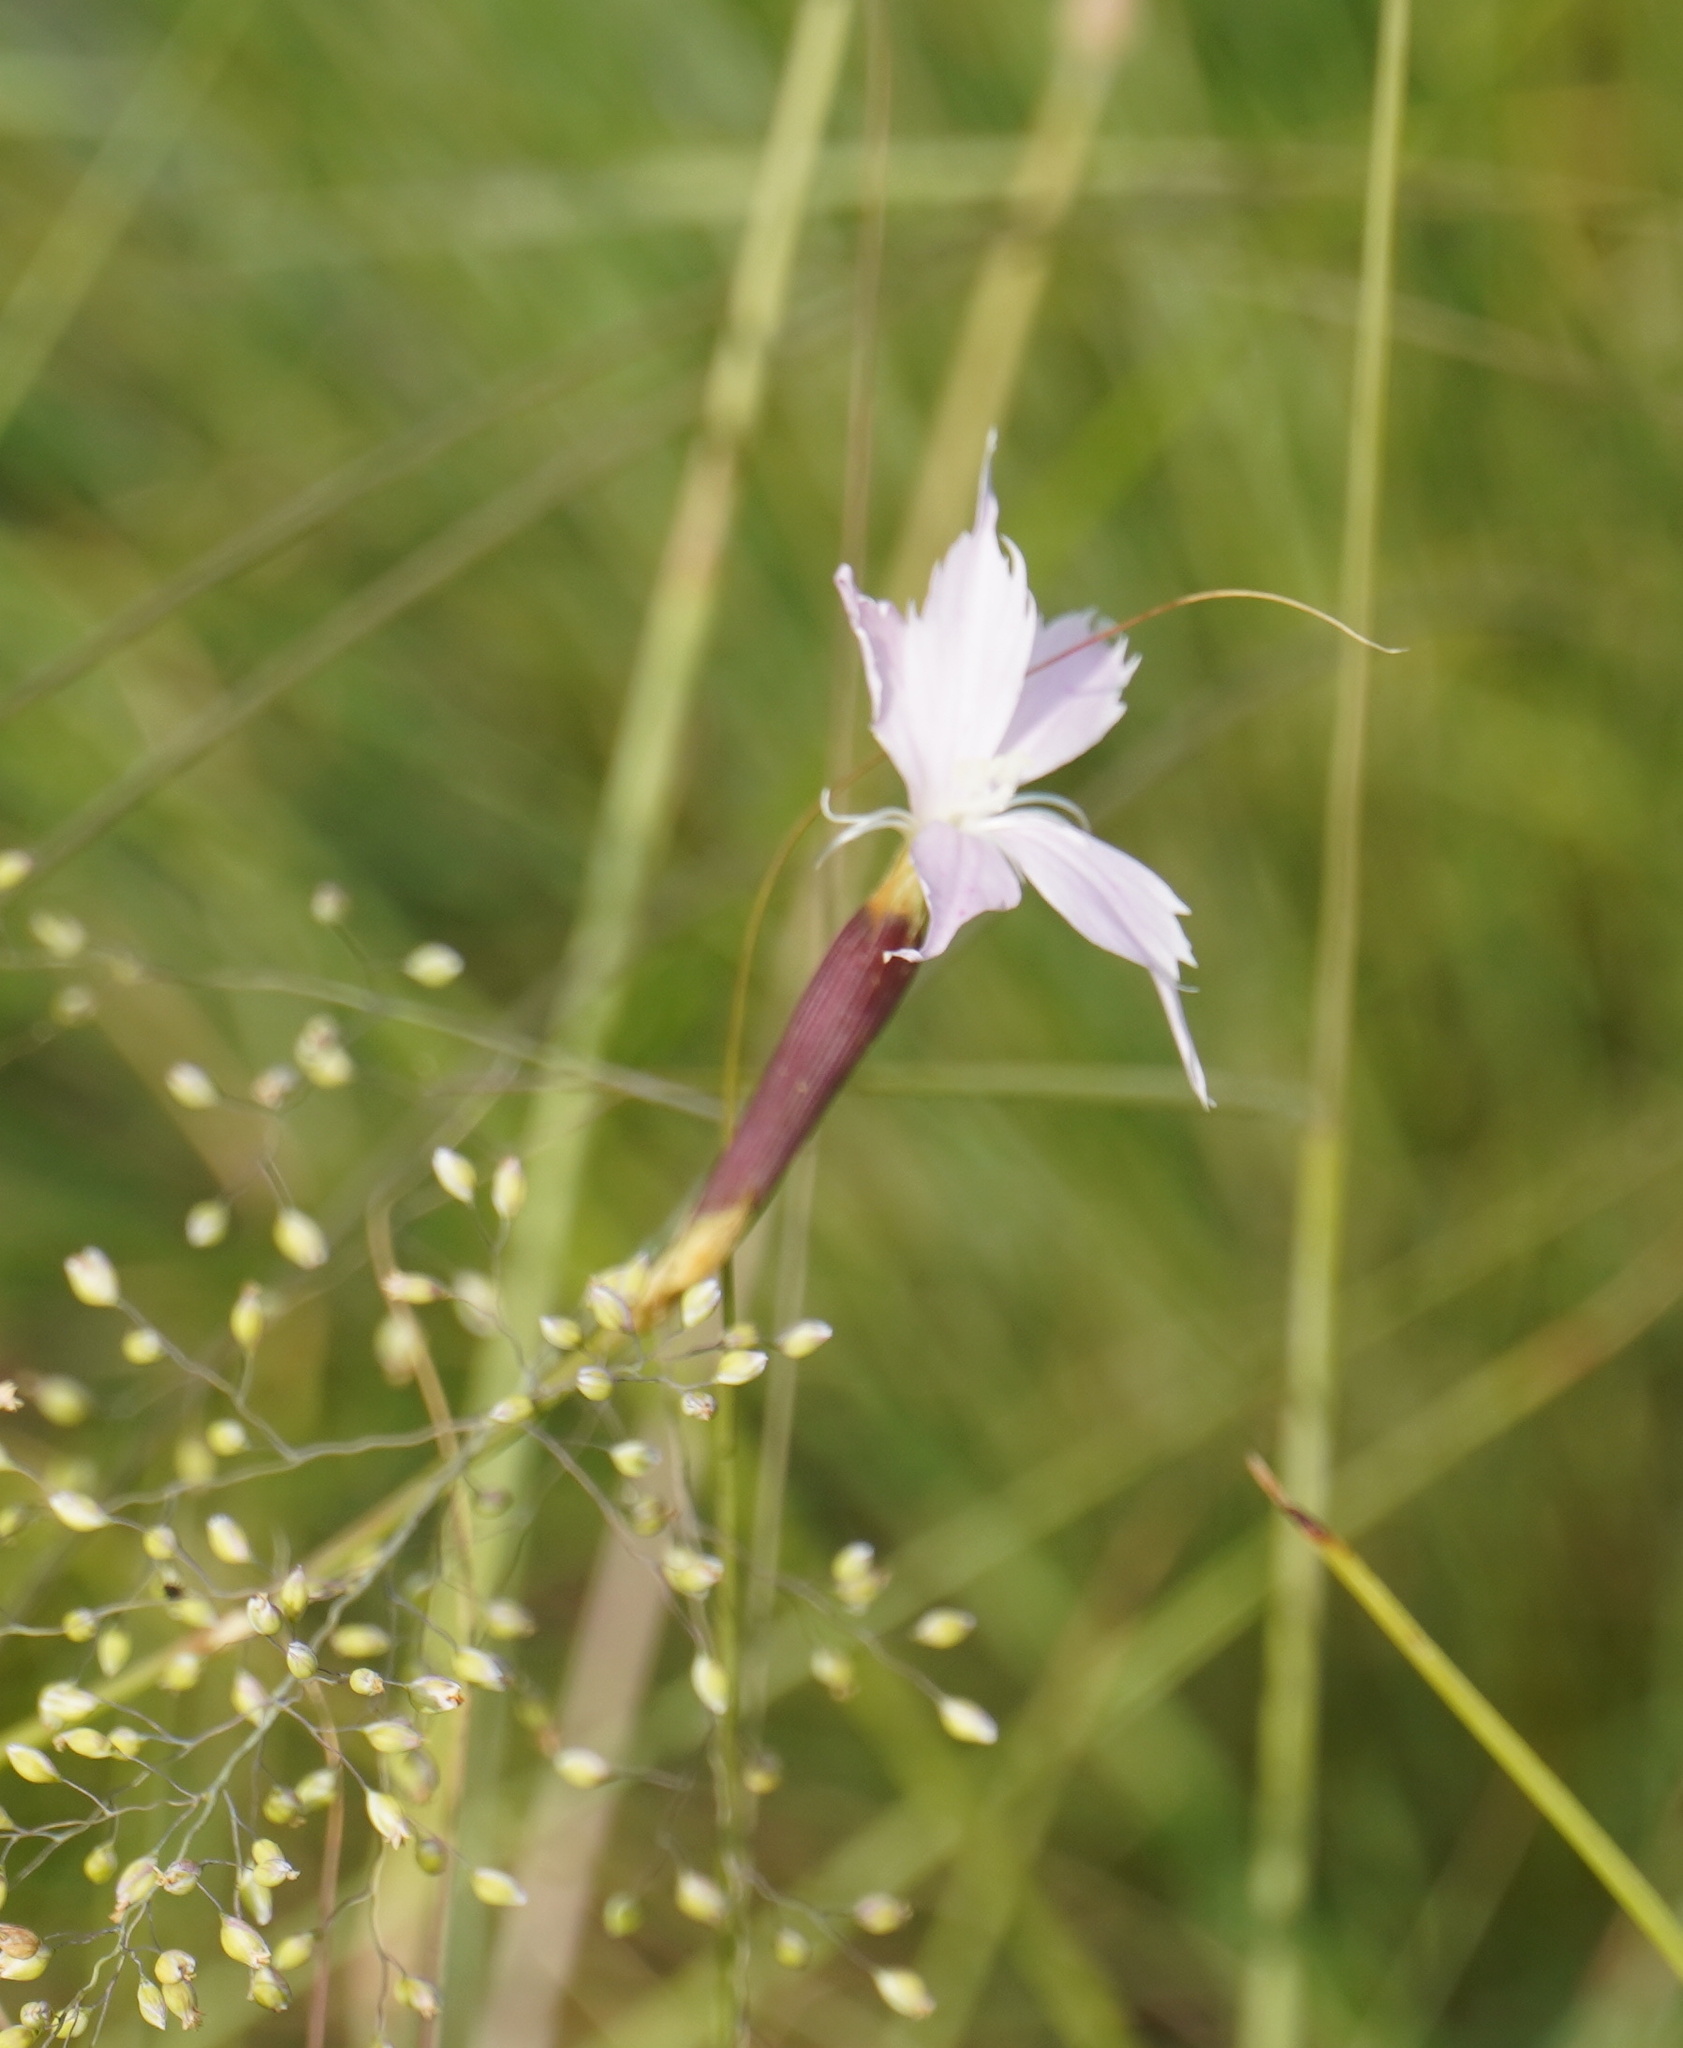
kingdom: Plantae
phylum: Tracheophyta
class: Magnoliopsida
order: Caryophyllales
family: Caryophyllaceae
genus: Dianthus
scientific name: Dianthus mooiensis
